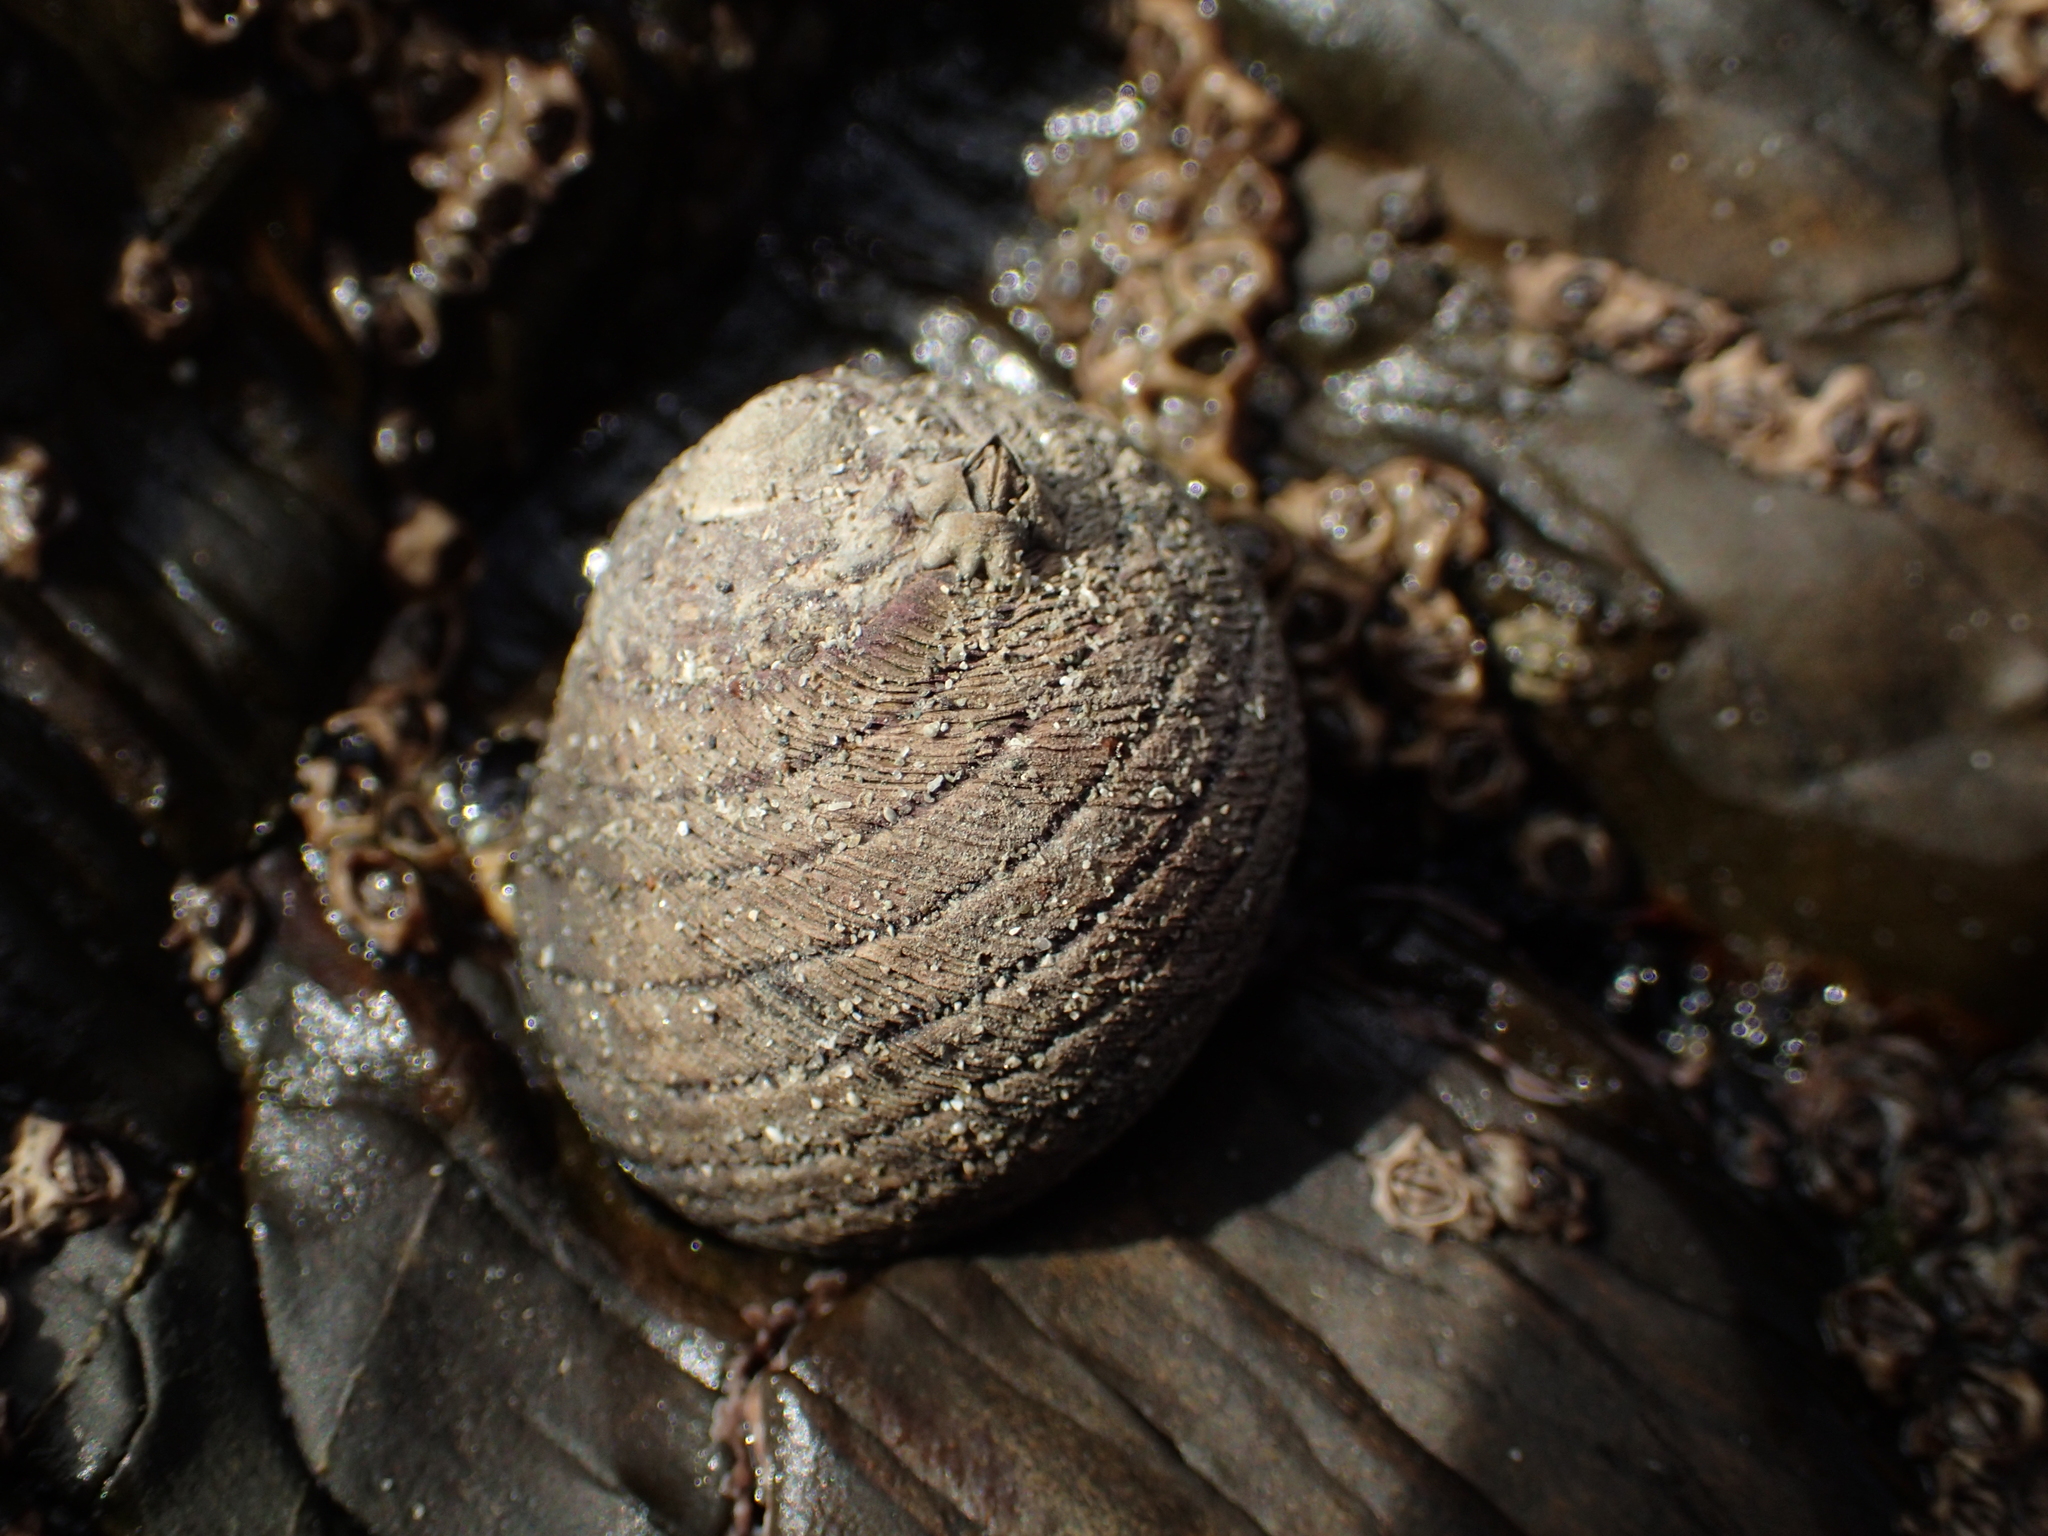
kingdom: Animalia
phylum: Mollusca
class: Gastropoda
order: Trochida
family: Trochidae
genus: Diloma
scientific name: Diloma aethiops
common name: Scorched monodont
